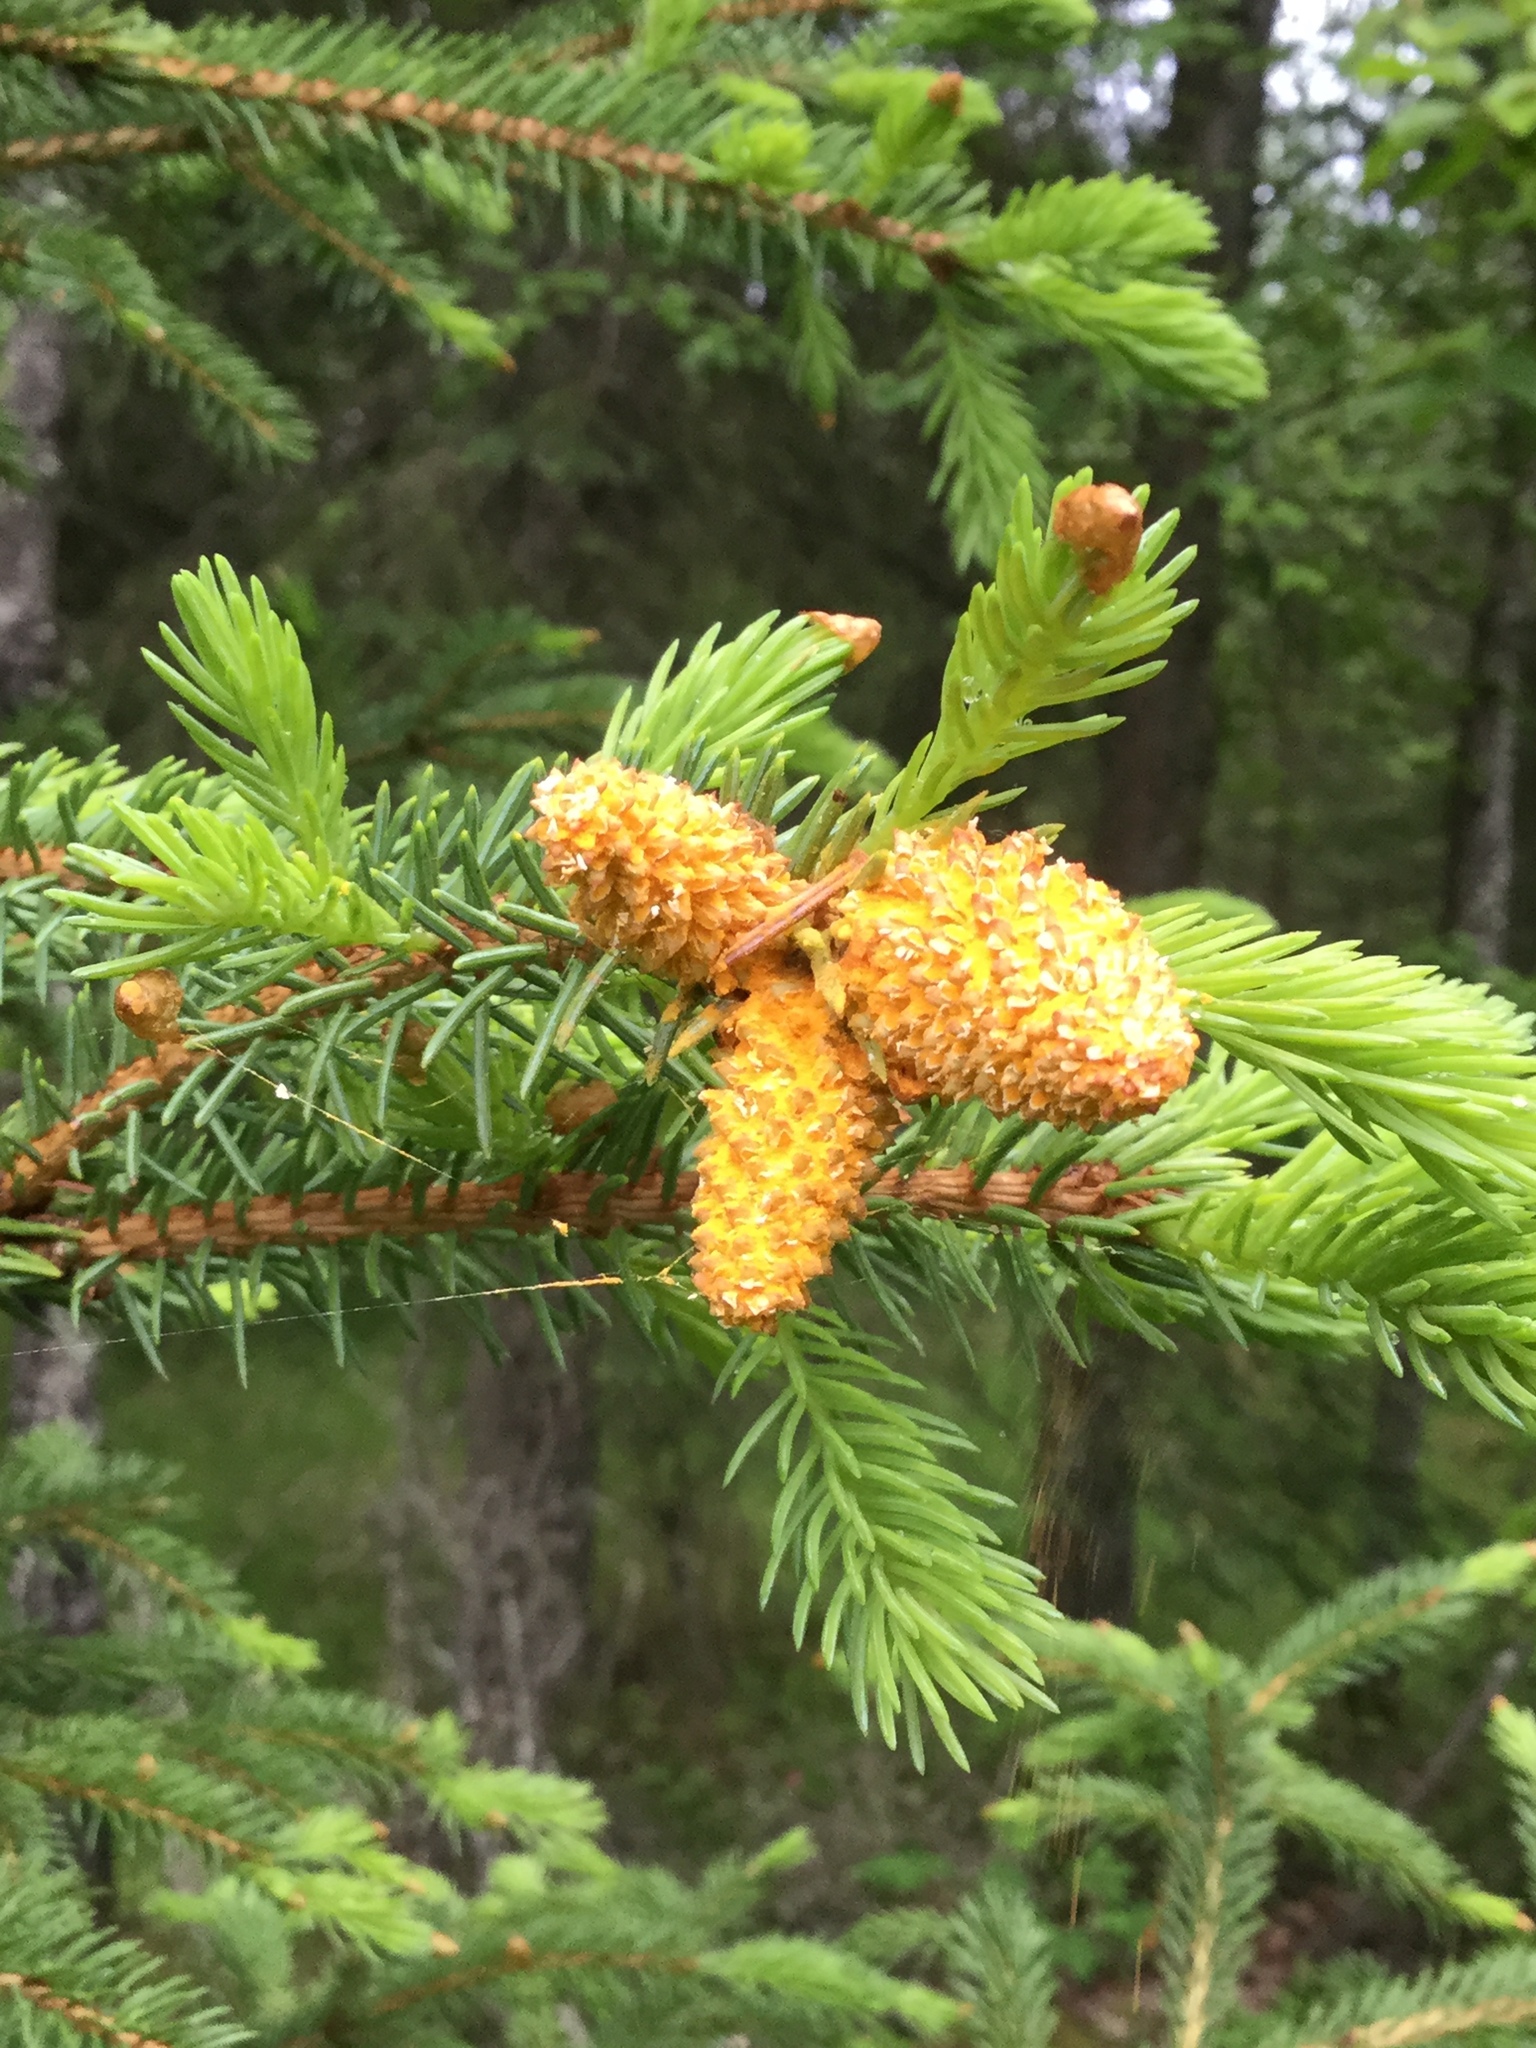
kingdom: Fungi
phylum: Basidiomycota
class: Pucciniomycetes
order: Pucciniales
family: Coleosporiaceae
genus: Chrysomyxa
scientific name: Chrysomyxa woroninii
